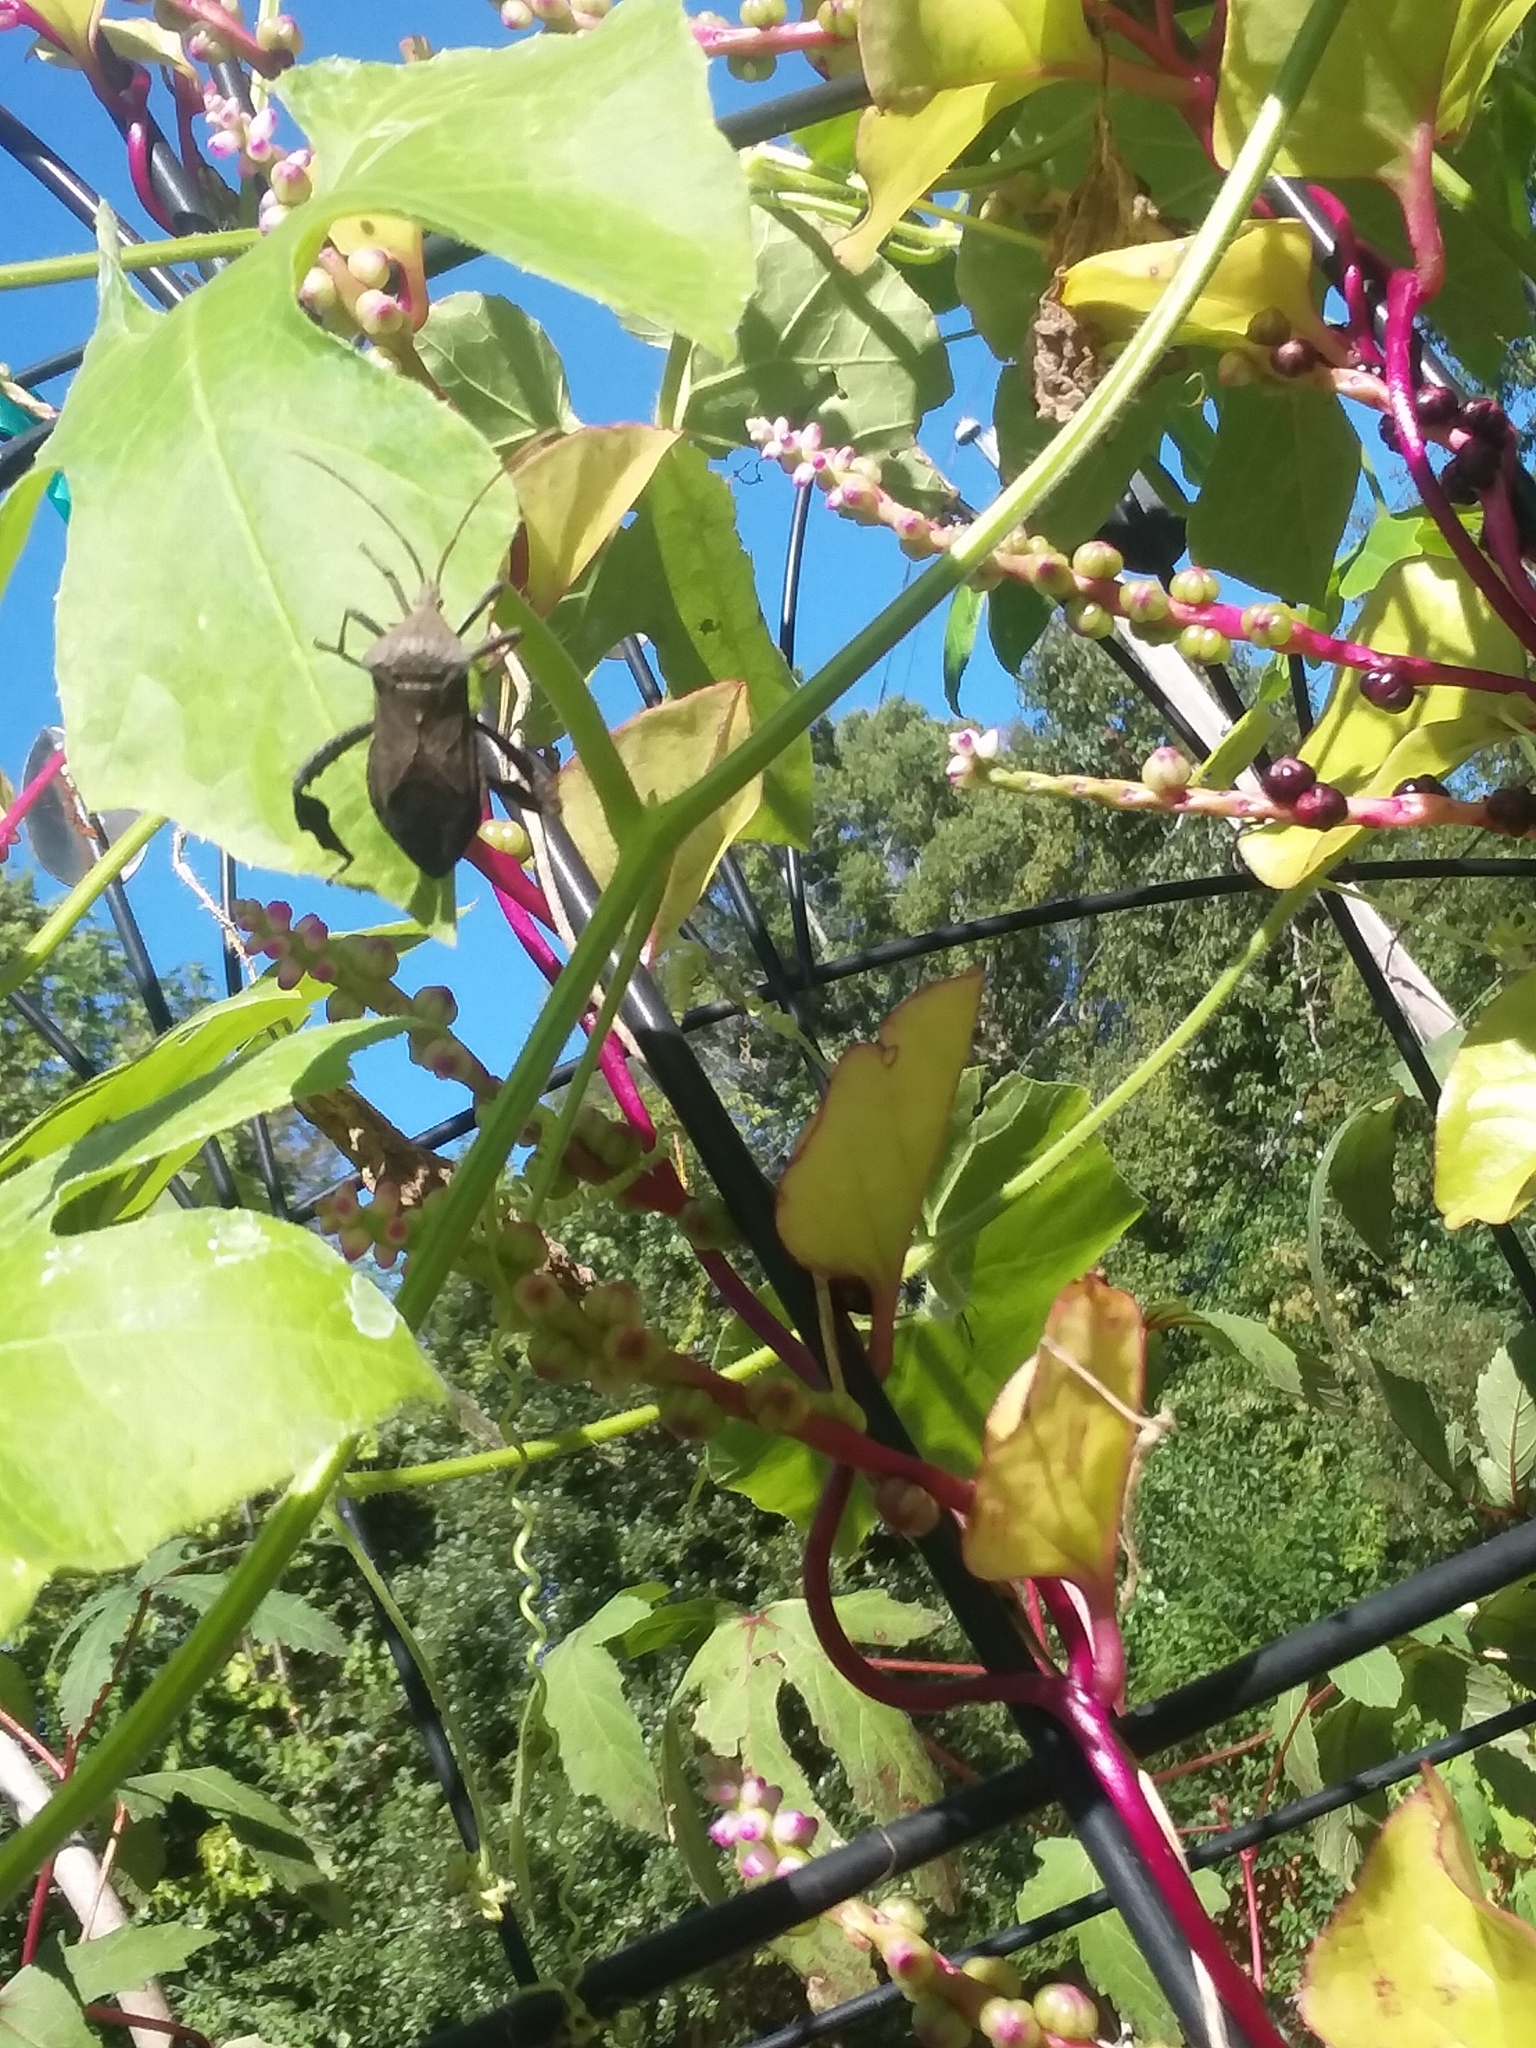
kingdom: Animalia
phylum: Arthropoda
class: Insecta
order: Hemiptera
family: Coreidae
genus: Acanthocephala
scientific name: Acanthocephala femorata
